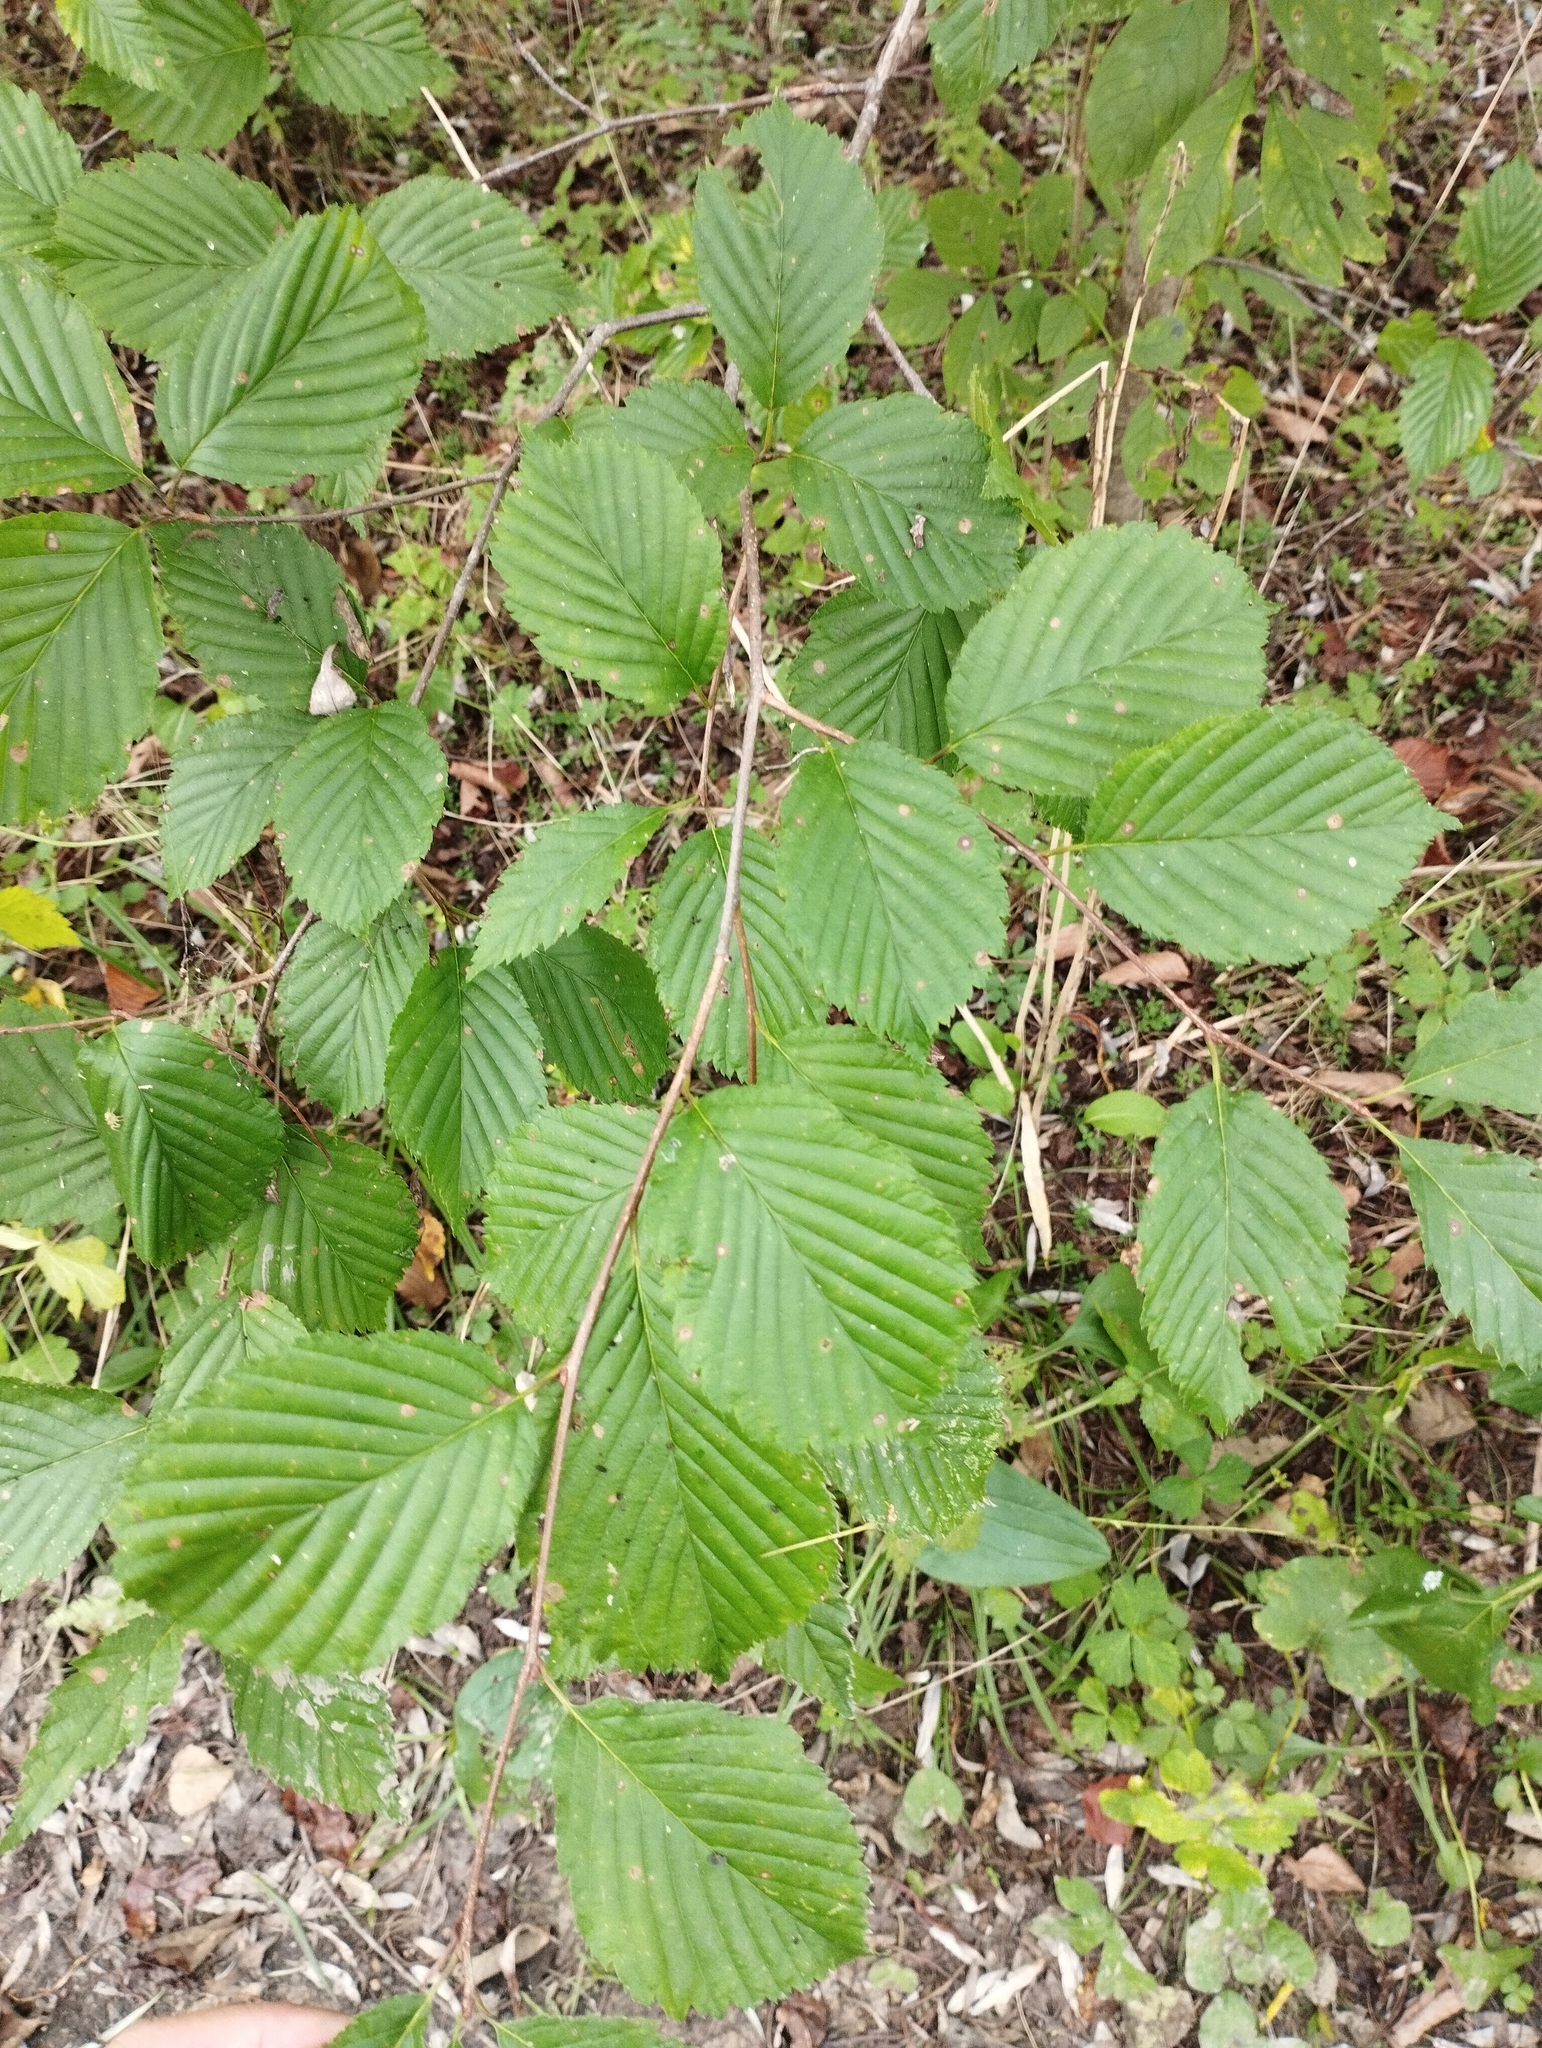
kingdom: Plantae
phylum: Tracheophyta
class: Magnoliopsida
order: Rosales
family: Rosaceae
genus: Sorbus
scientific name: Sorbus alnifolia
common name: Mountain-ash
